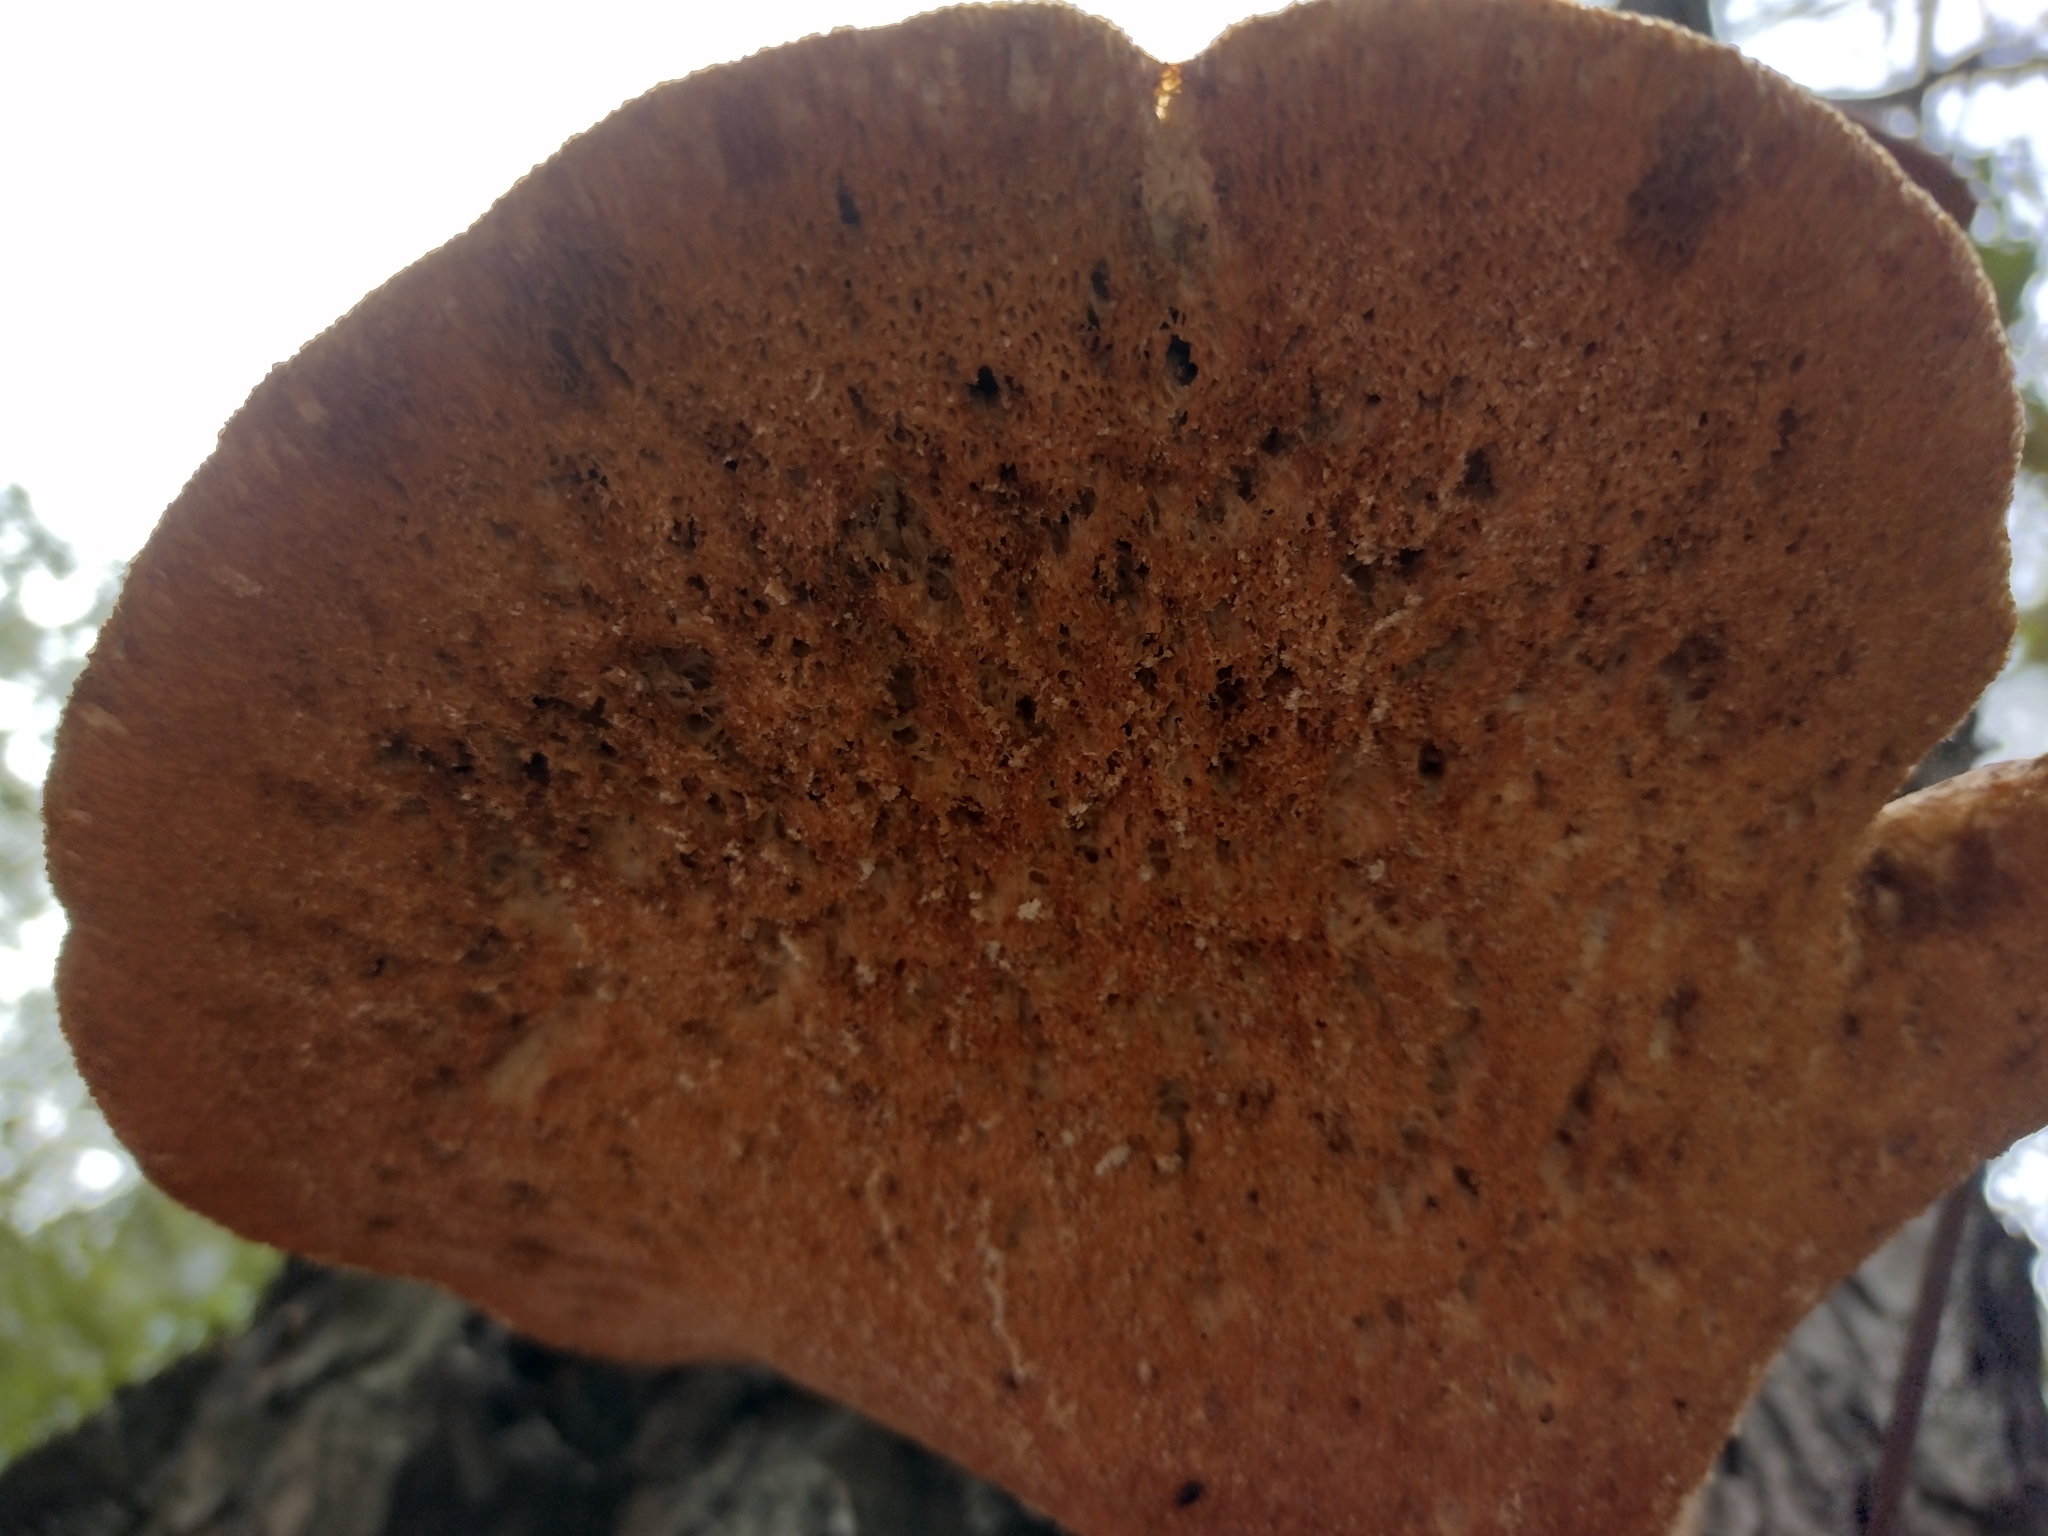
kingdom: Fungi
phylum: Basidiomycota
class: Agaricomycetes
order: Polyporales
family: Polyporaceae
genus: Cerioporus
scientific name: Cerioporus squamosus
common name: Dryad's saddle
